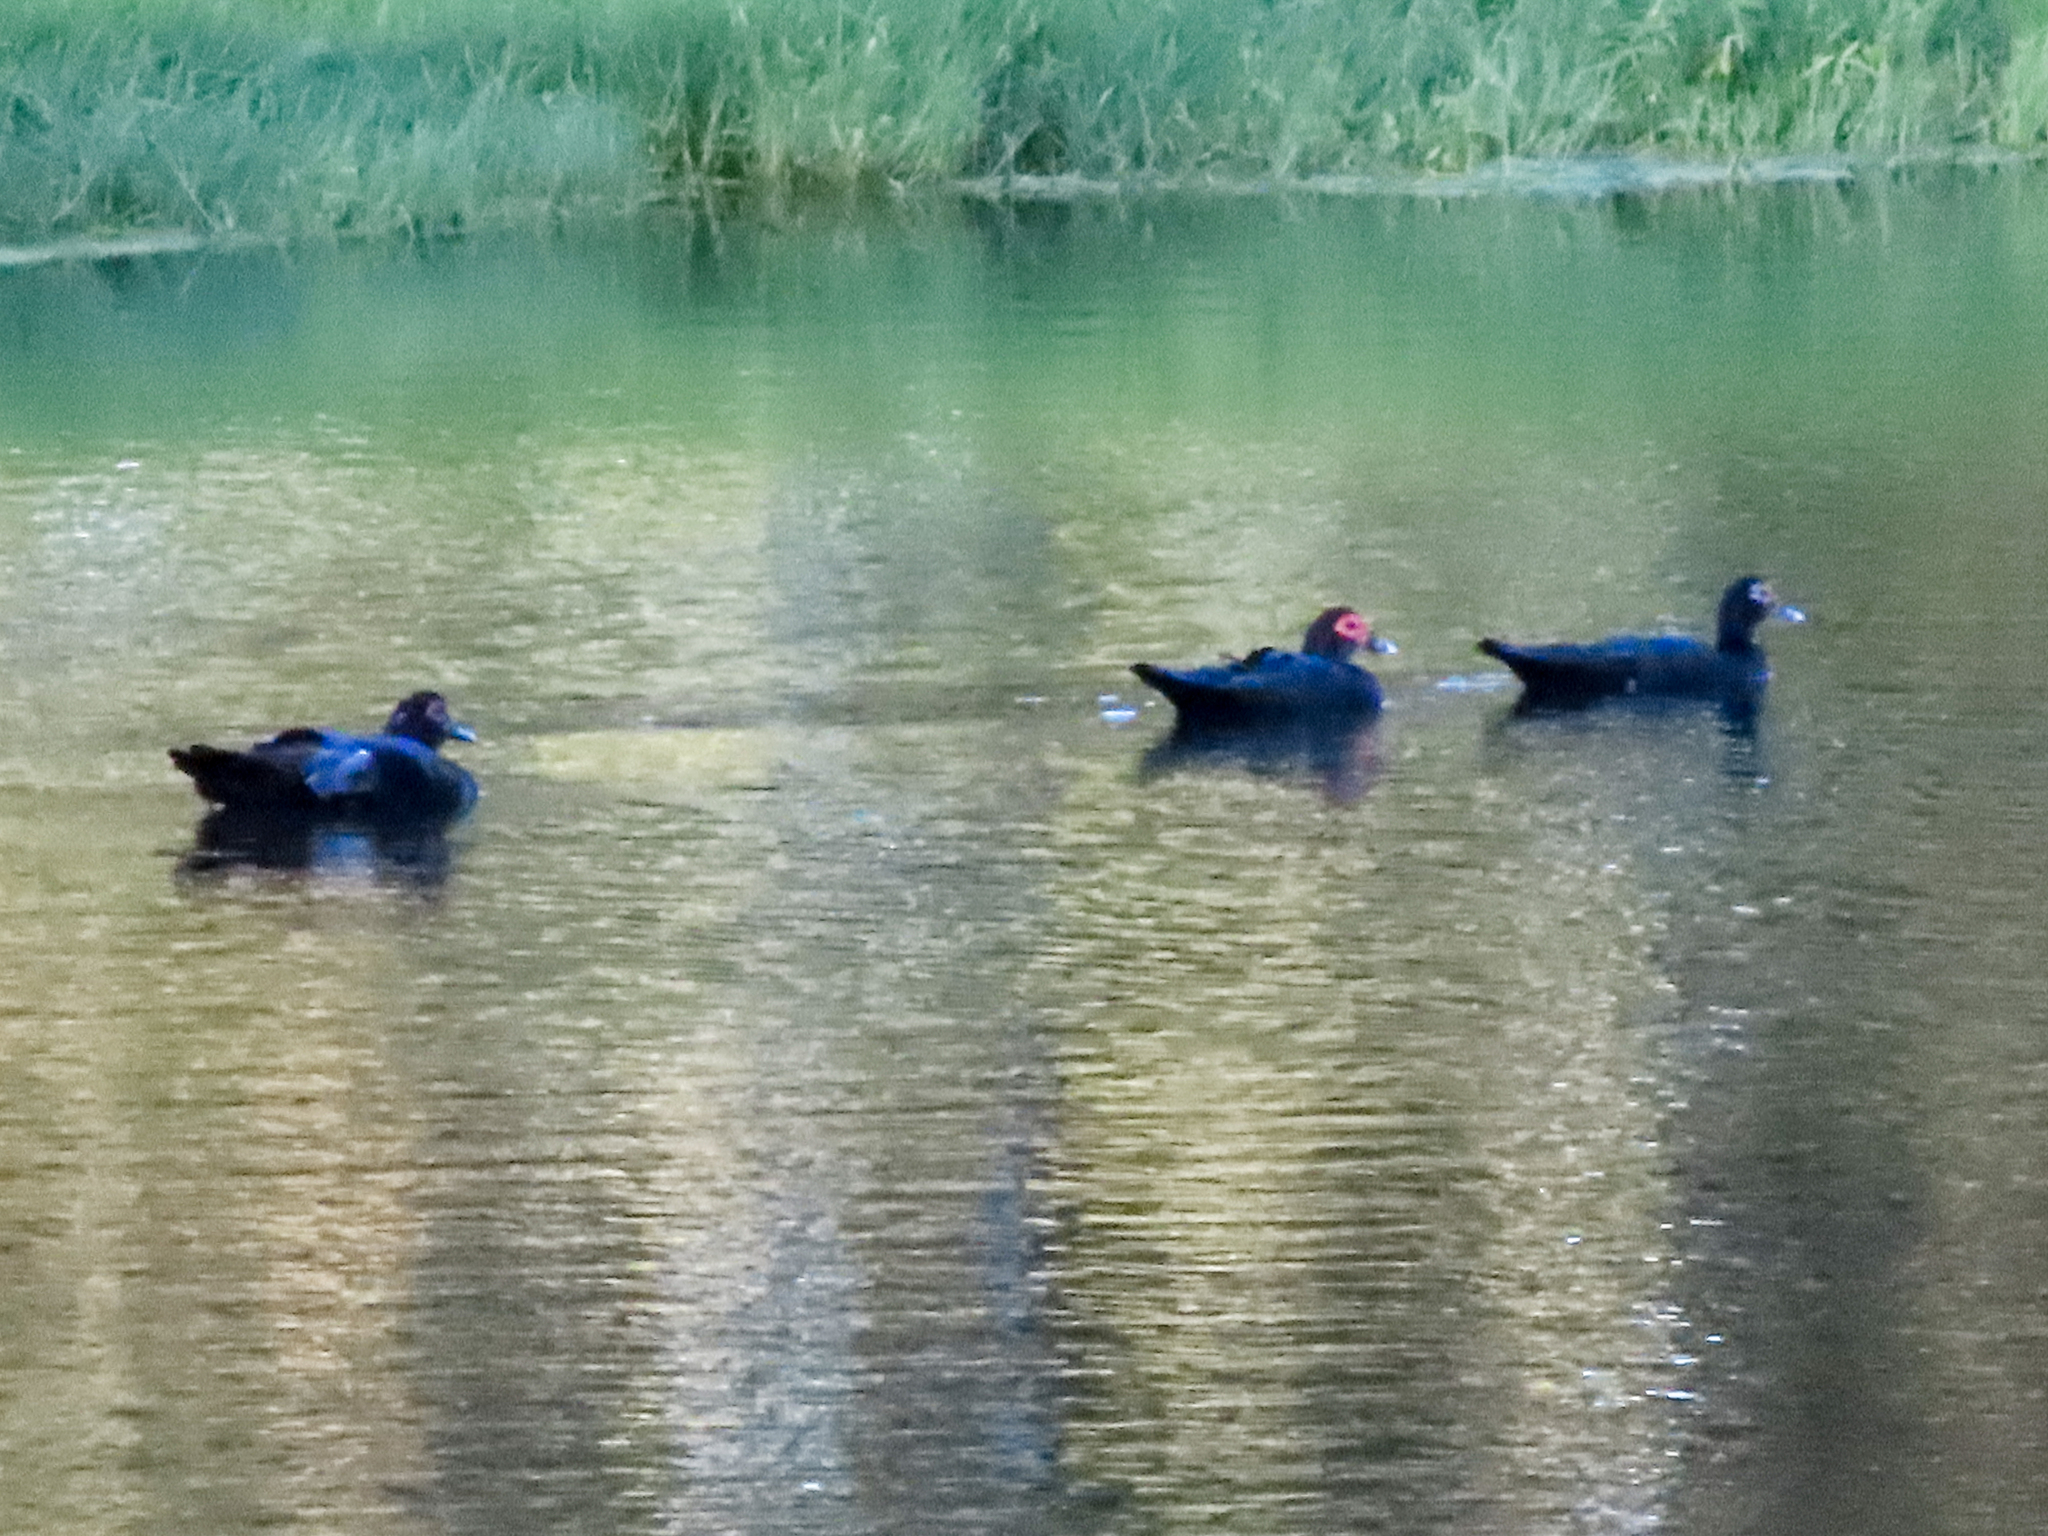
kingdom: Animalia
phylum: Chordata
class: Aves
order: Anseriformes
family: Anatidae
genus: Cairina
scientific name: Cairina moschata
